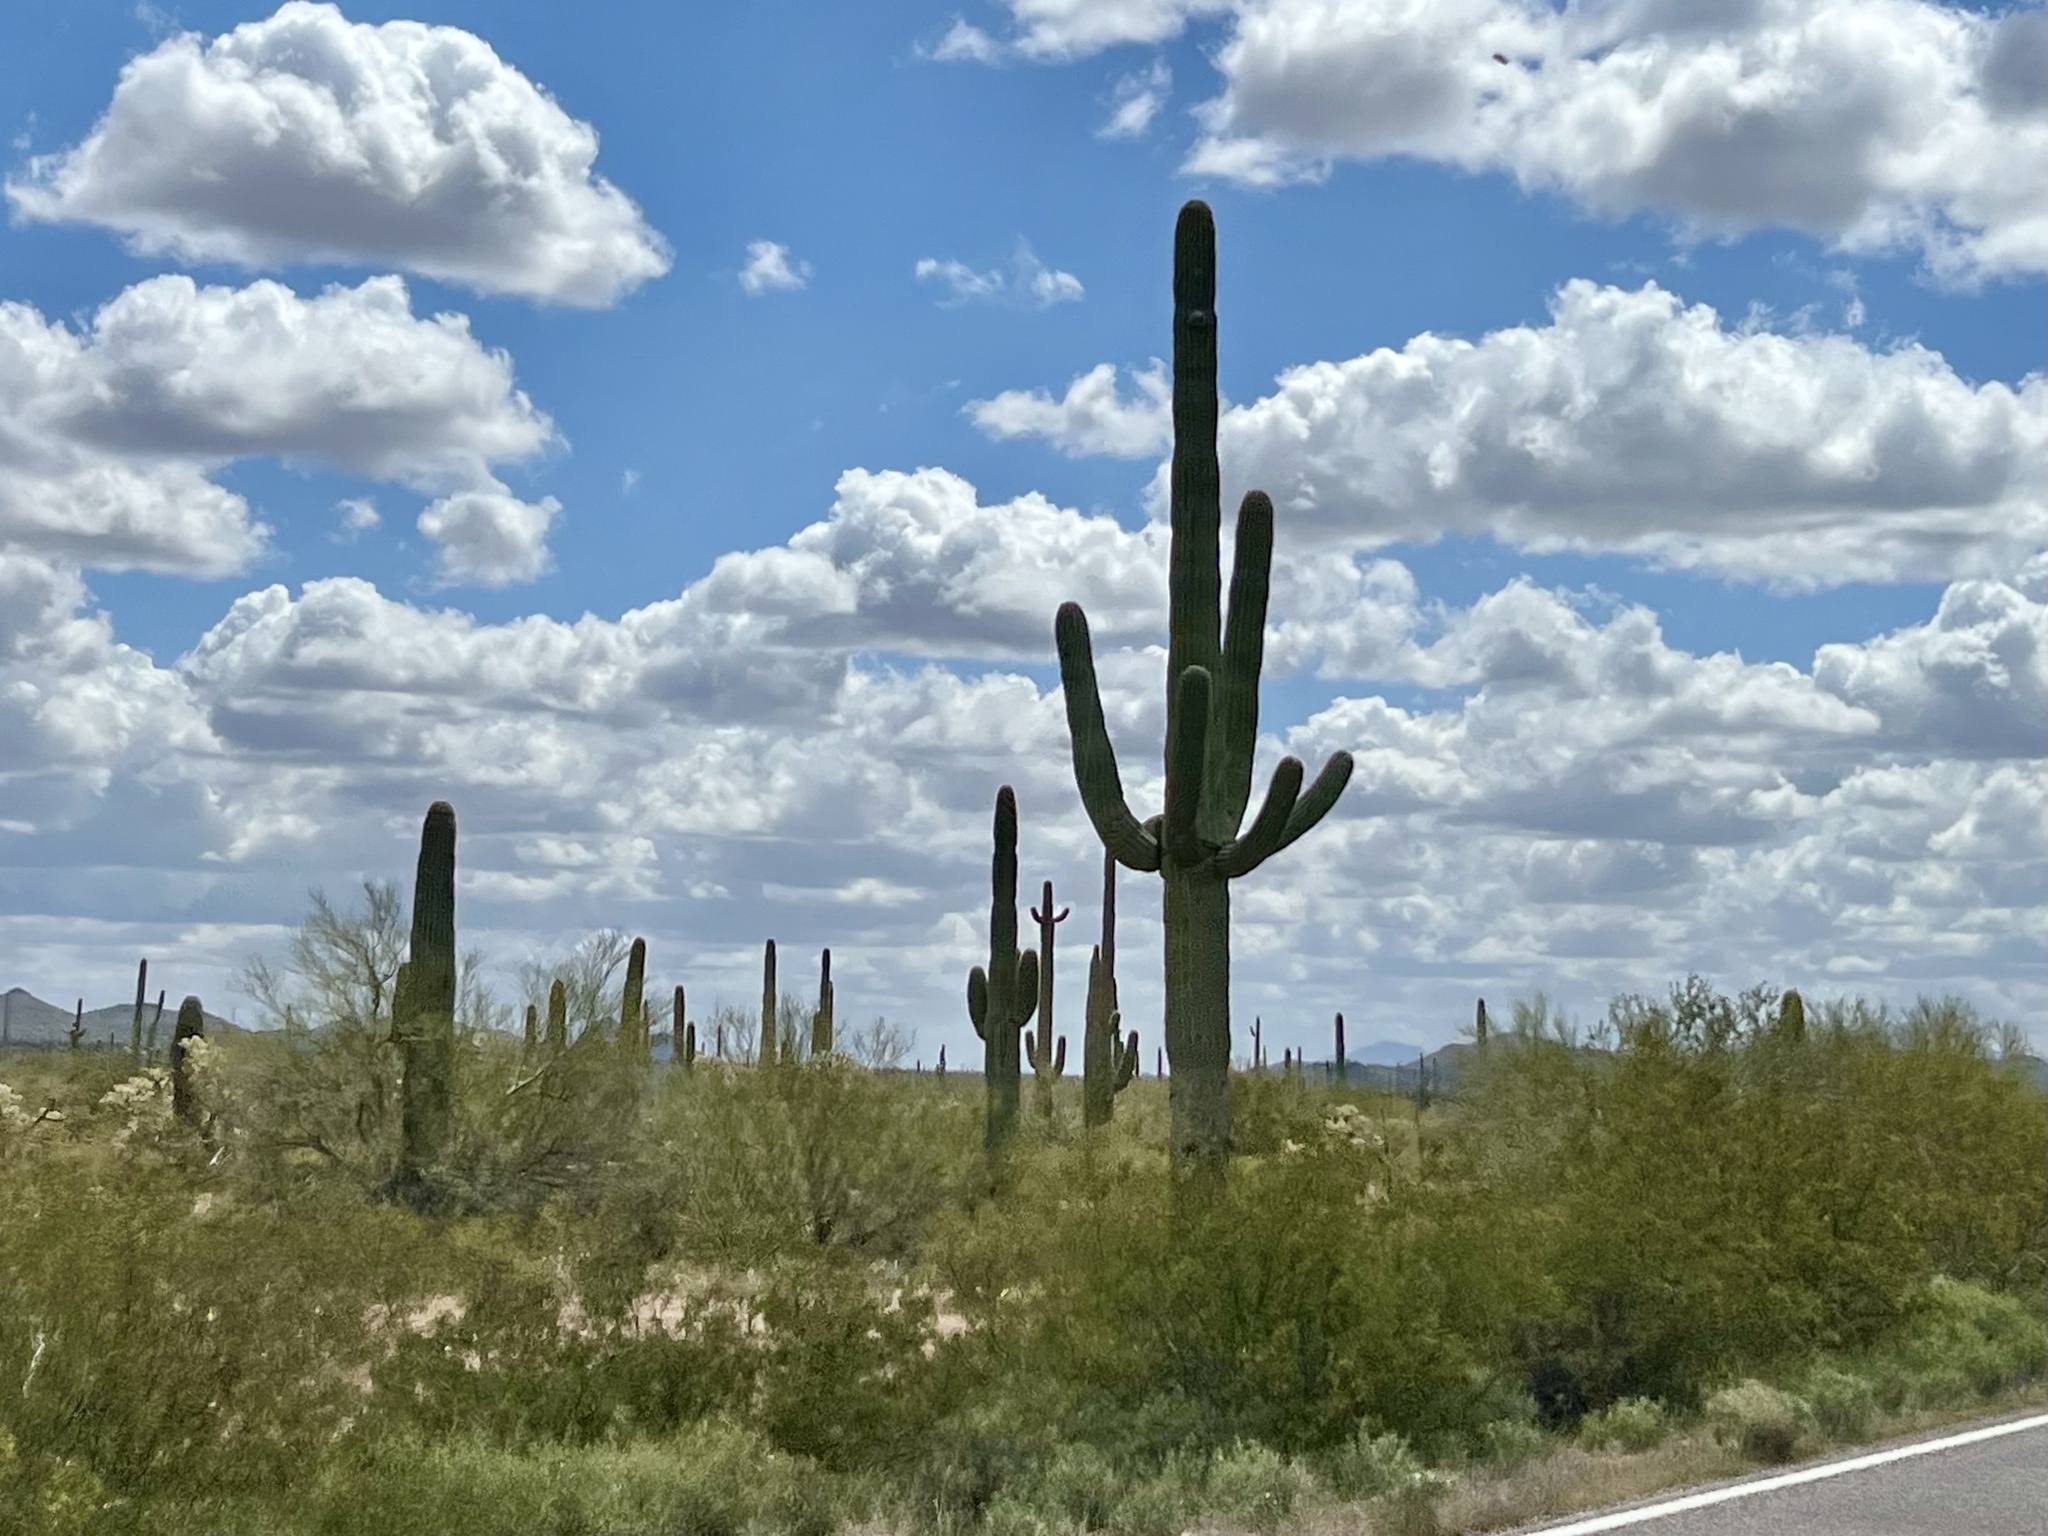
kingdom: Plantae
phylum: Tracheophyta
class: Magnoliopsida
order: Caryophyllales
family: Cactaceae
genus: Carnegiea
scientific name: Carnegiea gigantea
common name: Saguaro
